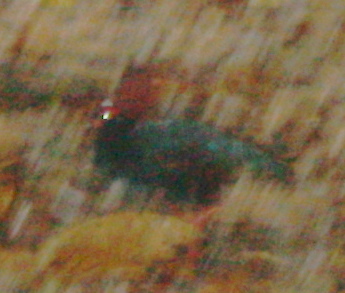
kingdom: Animalia
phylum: Chordata
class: Aves
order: Galliformes
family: Phasianidae
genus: Rollulus
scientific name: Rollulus rouloul
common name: Crested partridge
